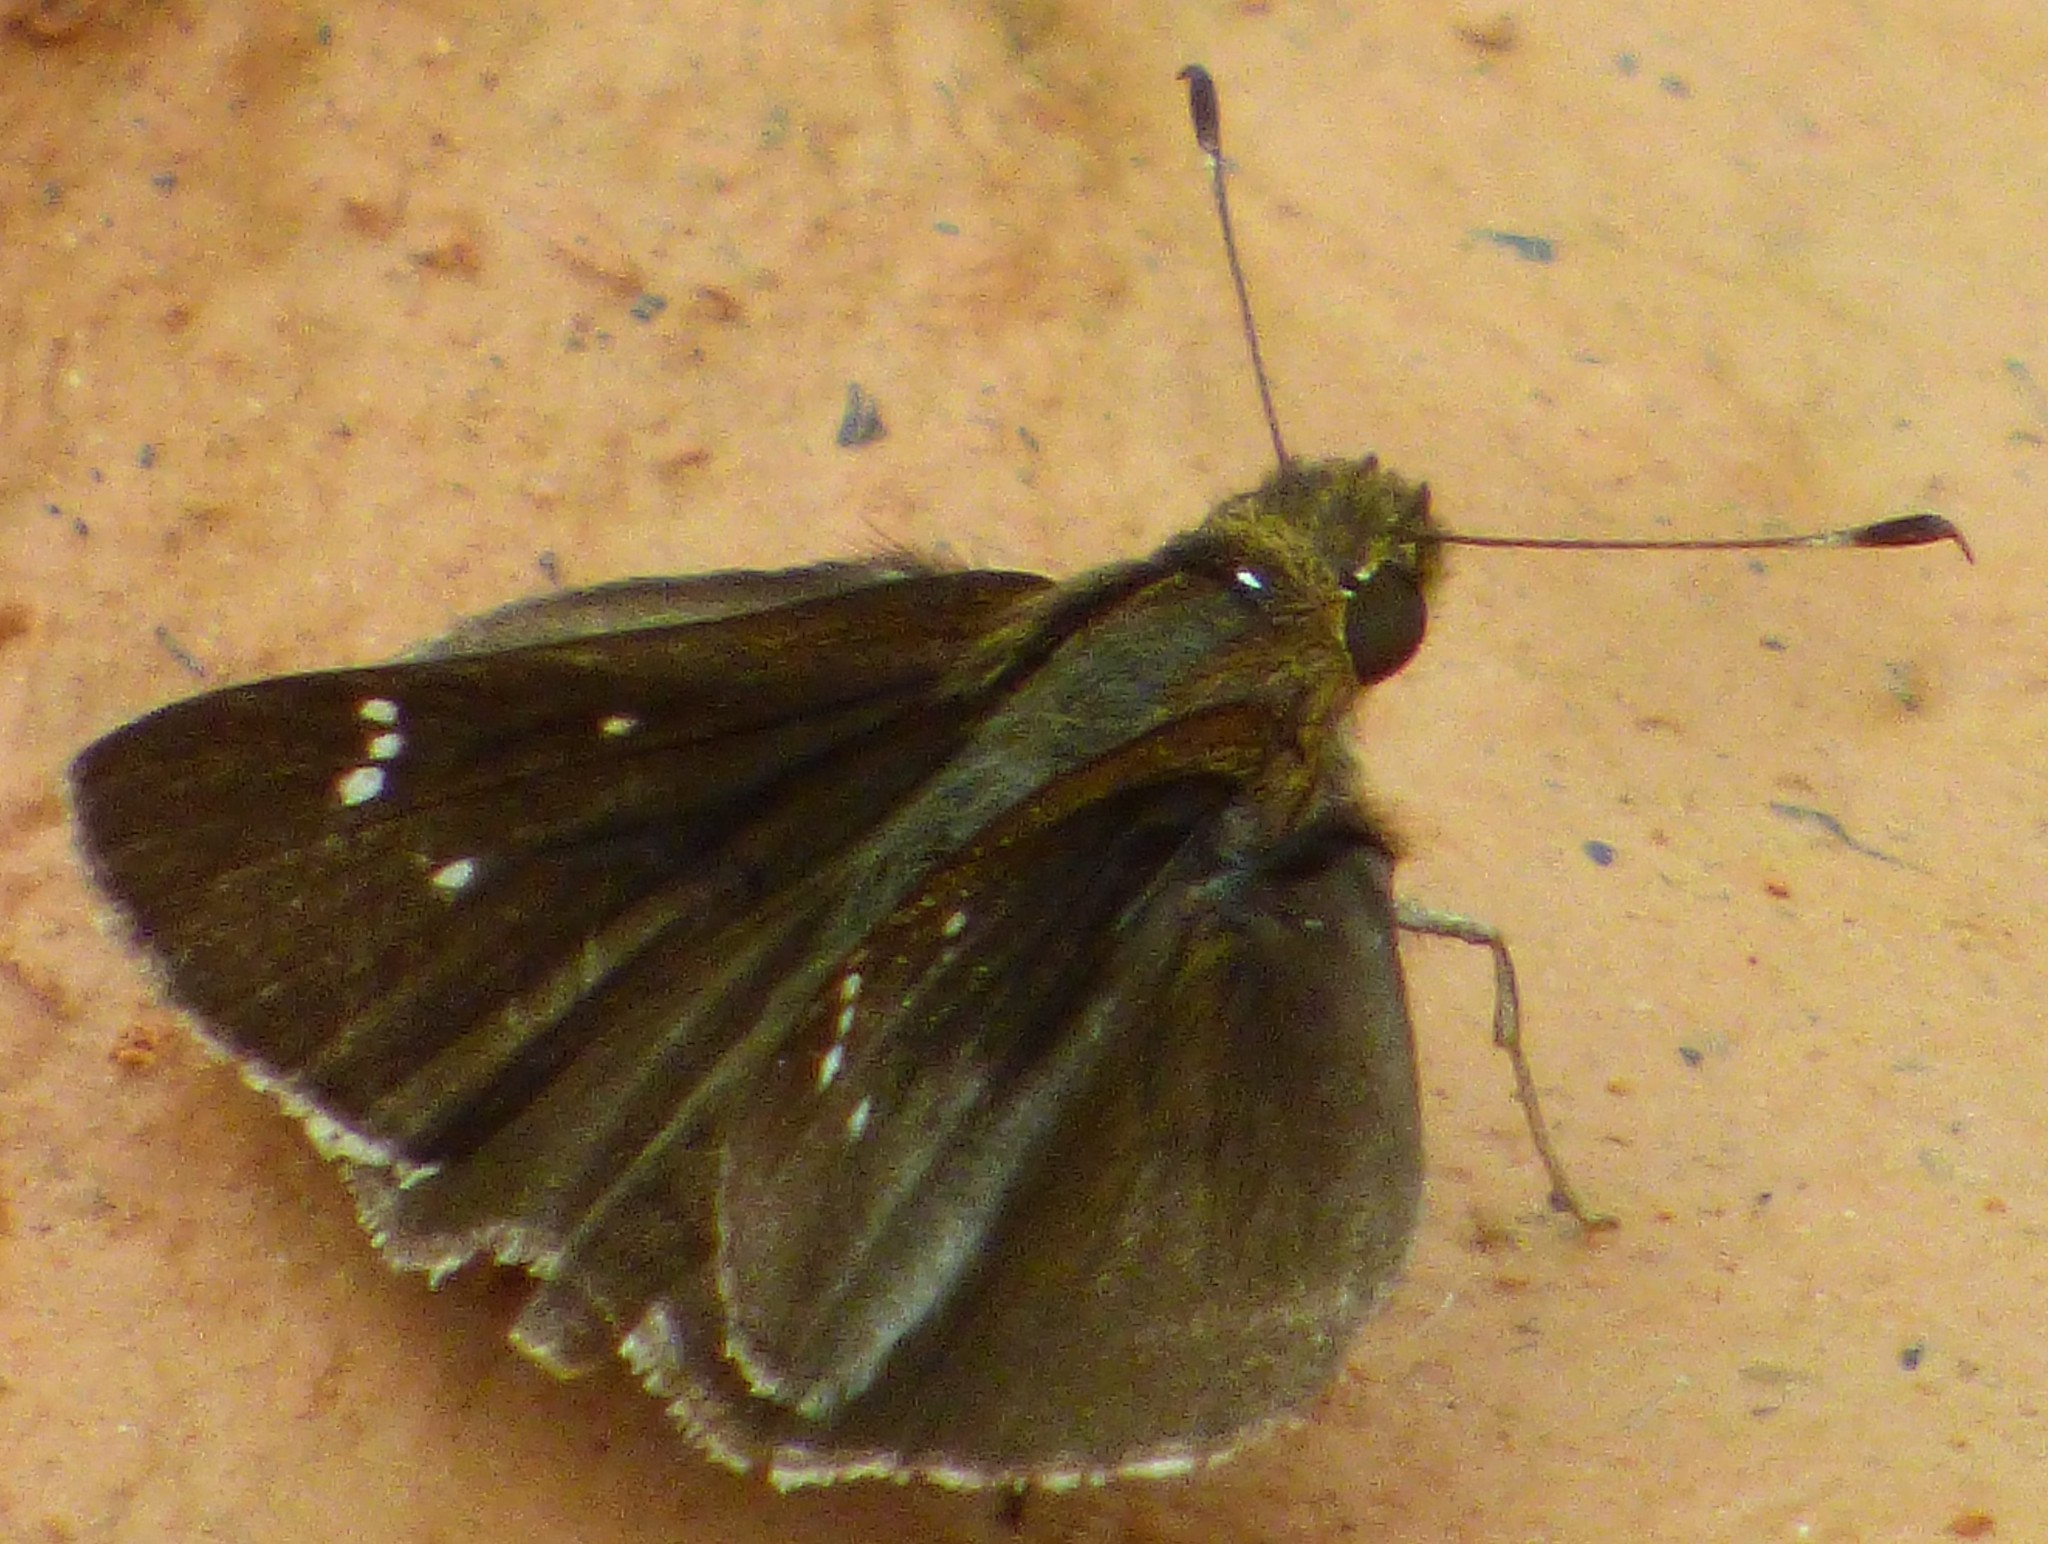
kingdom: Animalia
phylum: Arthropoda
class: Insecta
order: Lepidoptera
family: Hesperiidae
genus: Lerema
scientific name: Lerema accius
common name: Clouded skipper
